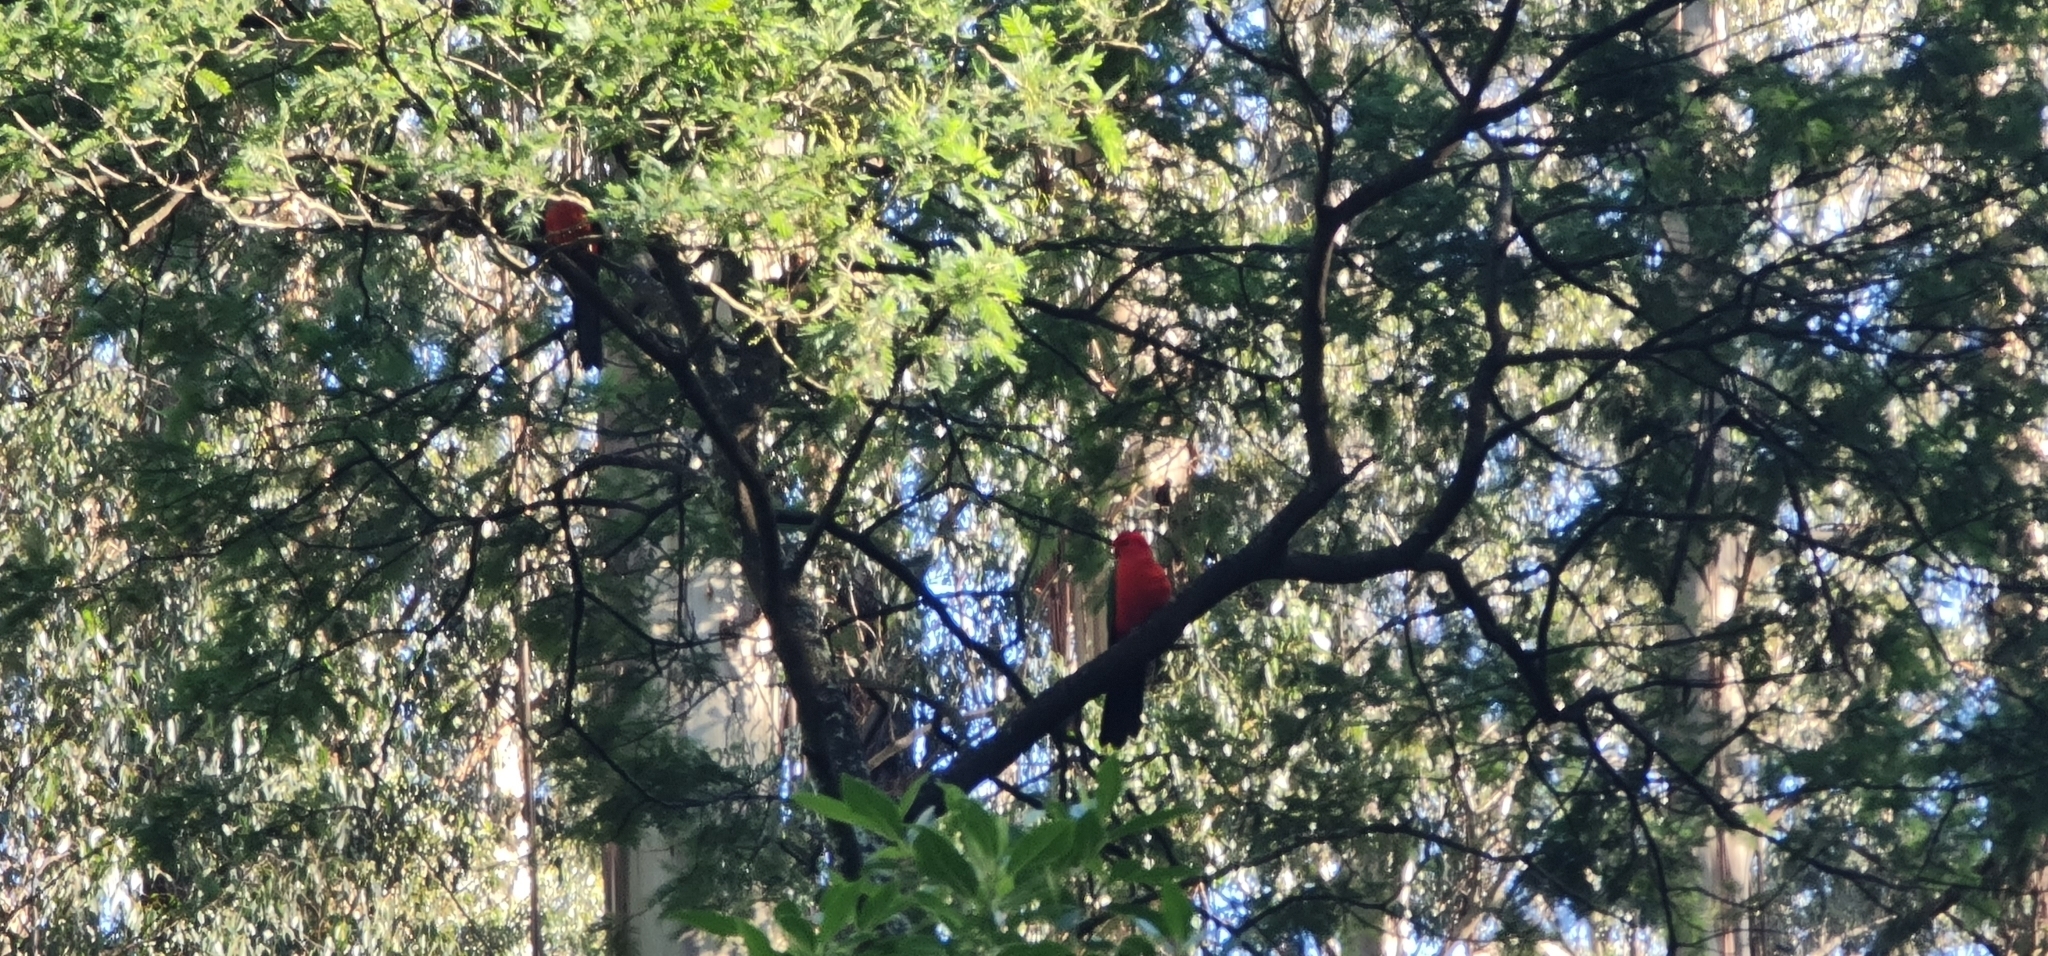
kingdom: Animalia
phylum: Chordata
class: Aves
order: Psittaciformes
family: Psittacidae
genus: Alisterus
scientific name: Alisterus scapularis
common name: Australian king parrot
